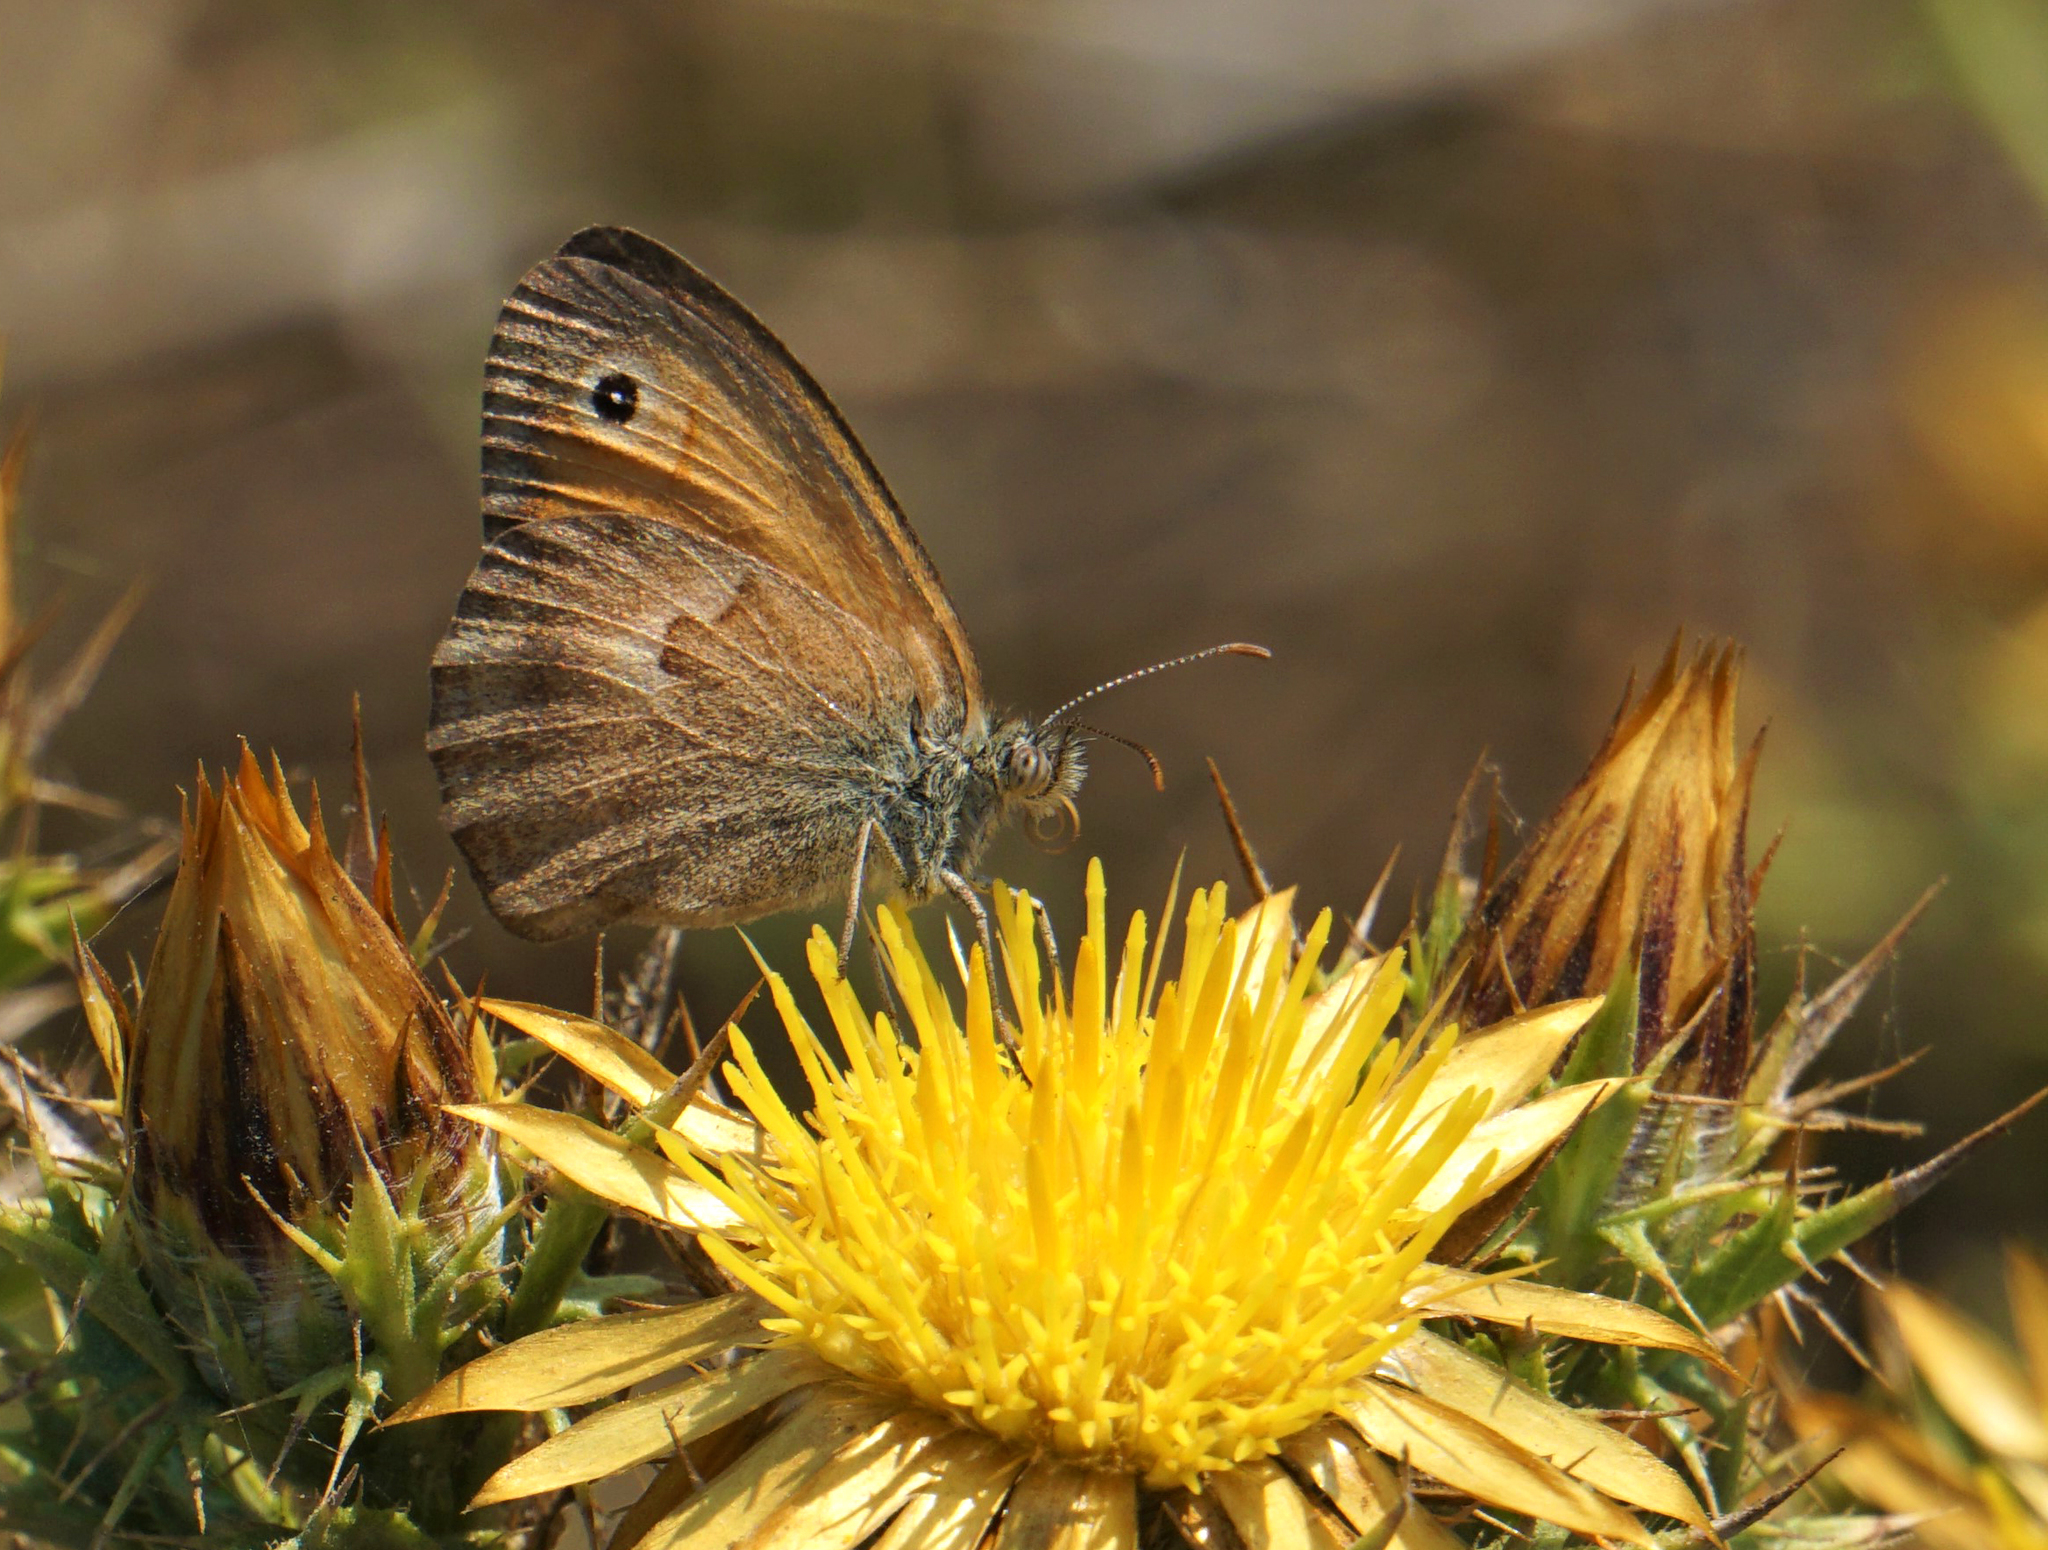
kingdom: Animalia
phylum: Arthropoda
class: Insecta
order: Lepidoptera
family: Nymphalidae
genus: Coenonympha
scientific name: Coenonympha pamphilus
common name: Small heath
